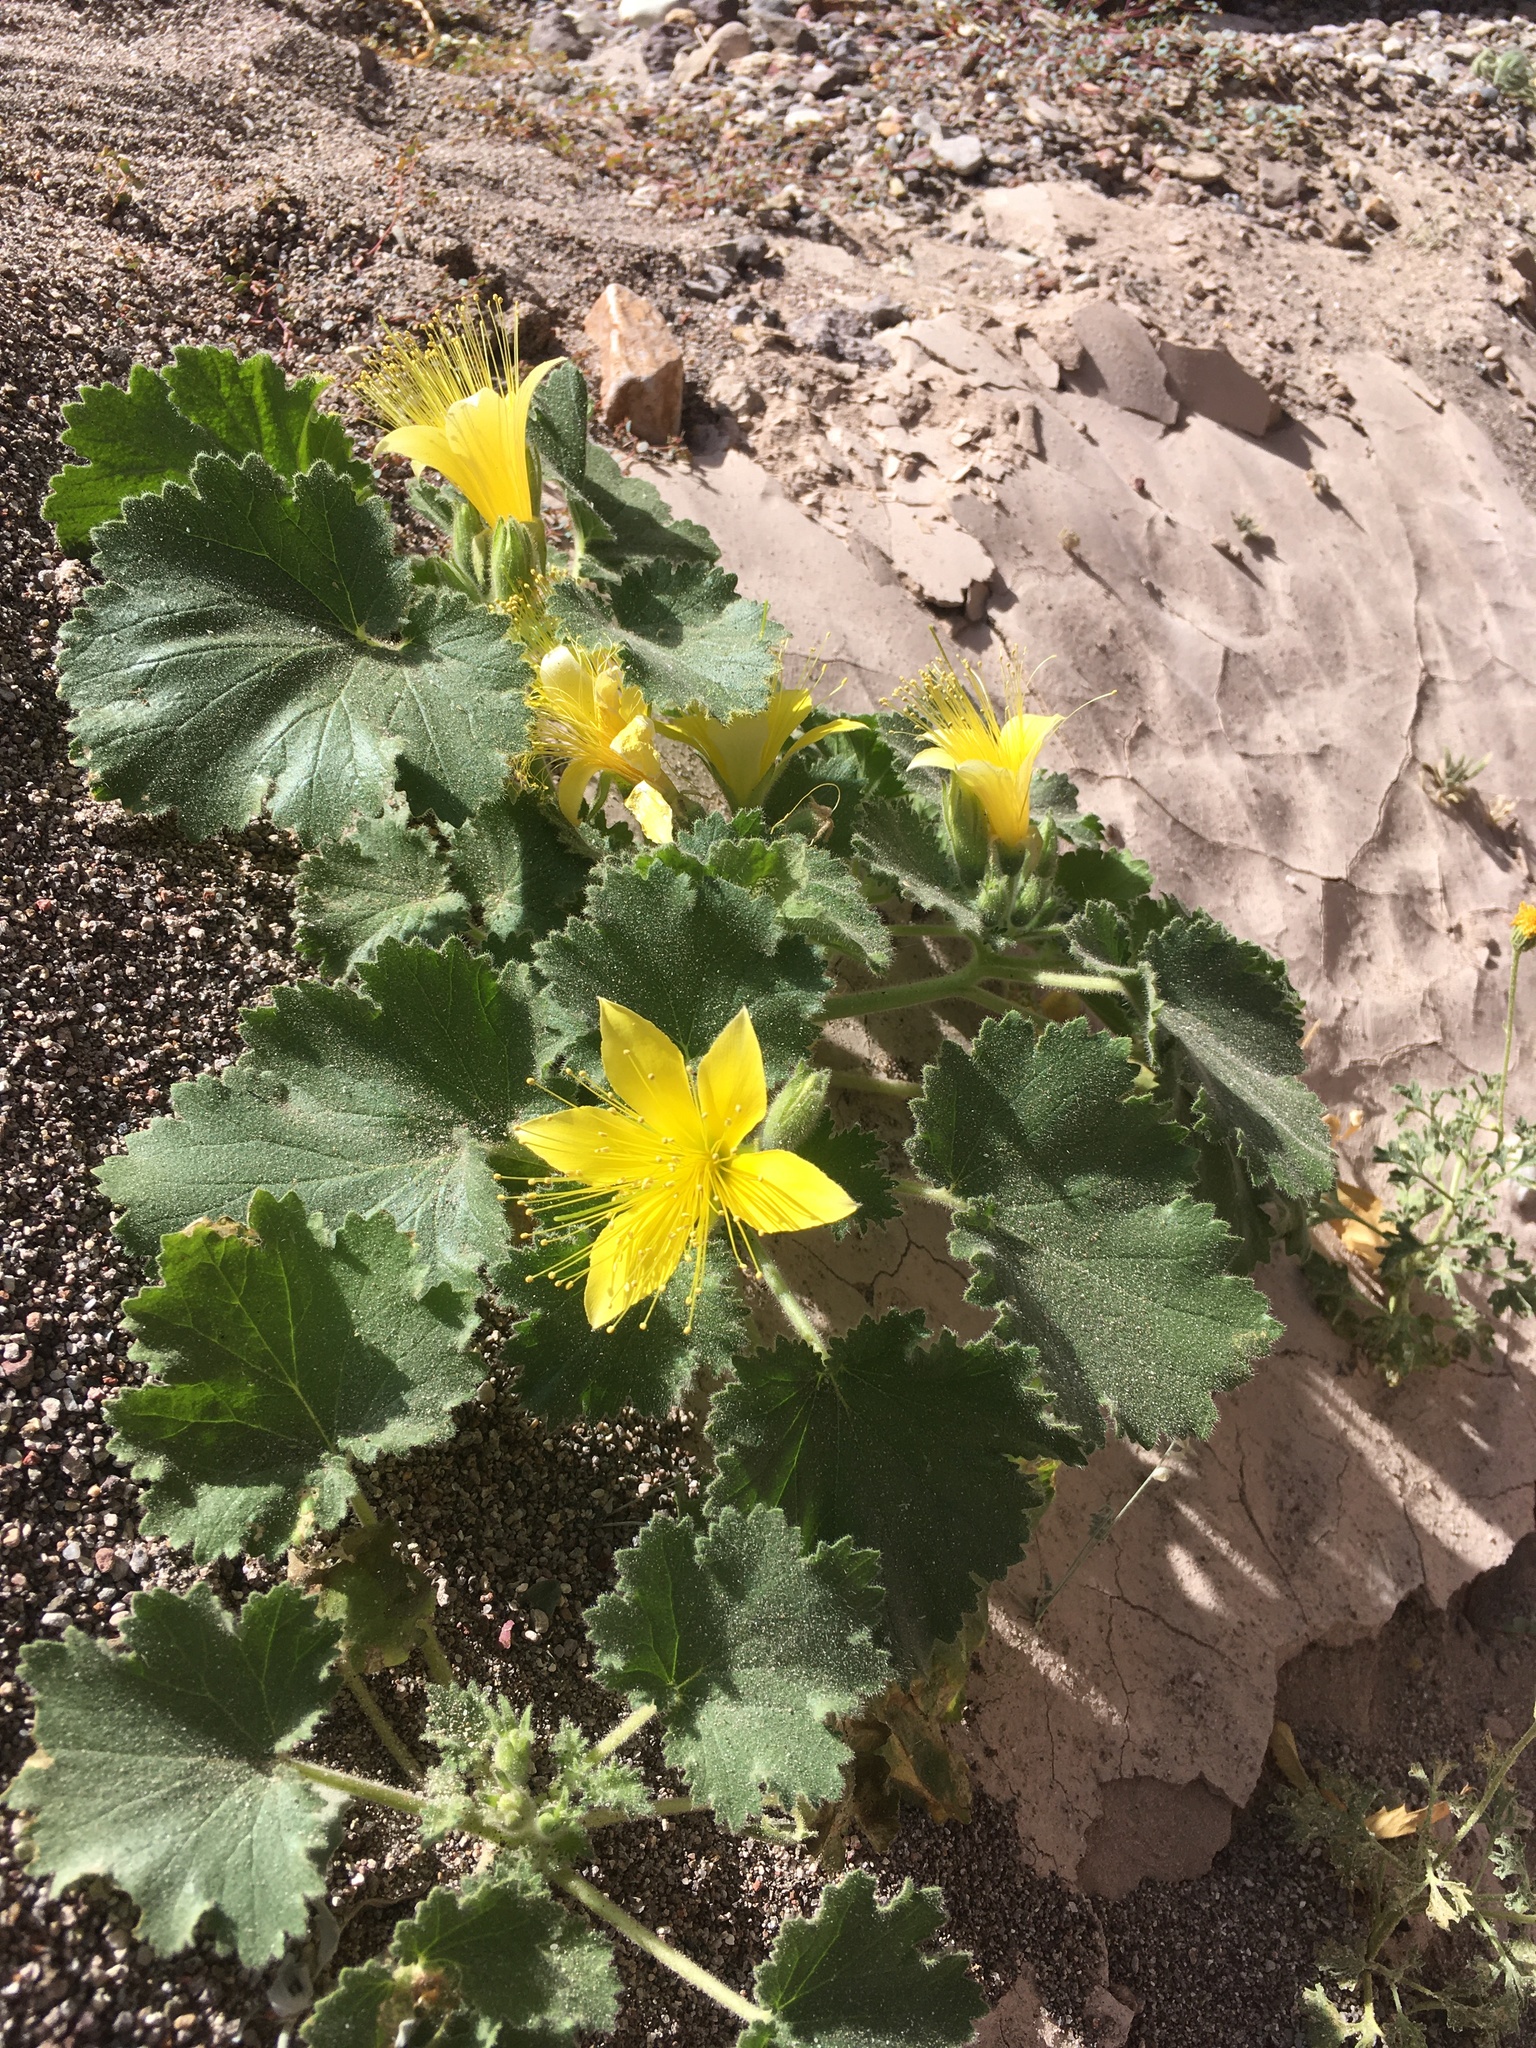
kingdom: Plantae
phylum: Tracheophyta
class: Magnoliopsida
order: Cornales
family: Loasaceae
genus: Eucnide
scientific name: Eucnide bartonioides
